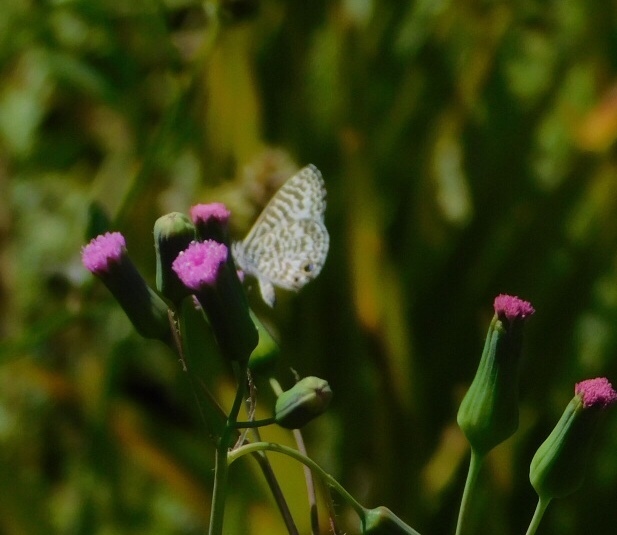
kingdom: Animalia
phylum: Arthropoda
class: Insecta
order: Lepidoptera
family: Lycaenidae
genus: Leptotes
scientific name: Leptotes cassius
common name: Cassius blue
